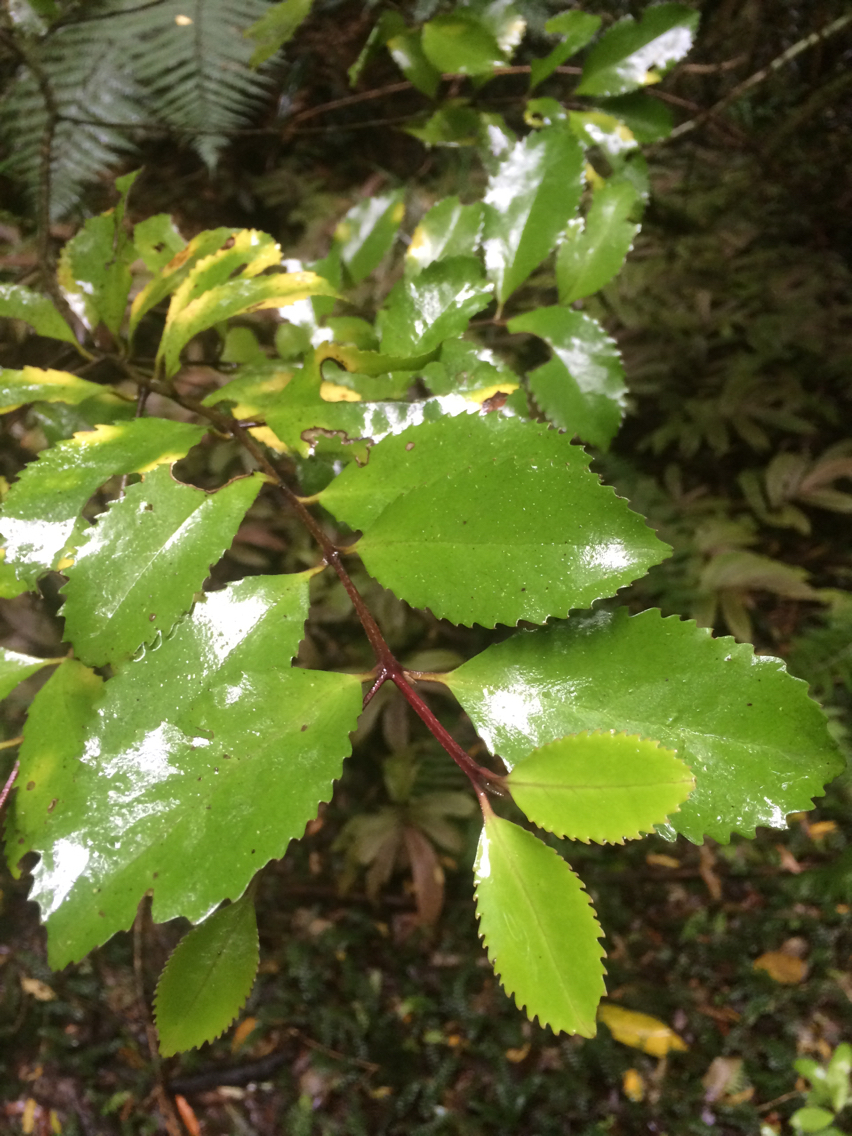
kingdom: Plantae
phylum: Tracheophyta
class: Magnoliopsida
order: Laurales
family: Atherospermataceae
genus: Laurelia
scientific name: Laurelia novae-zelandiae
